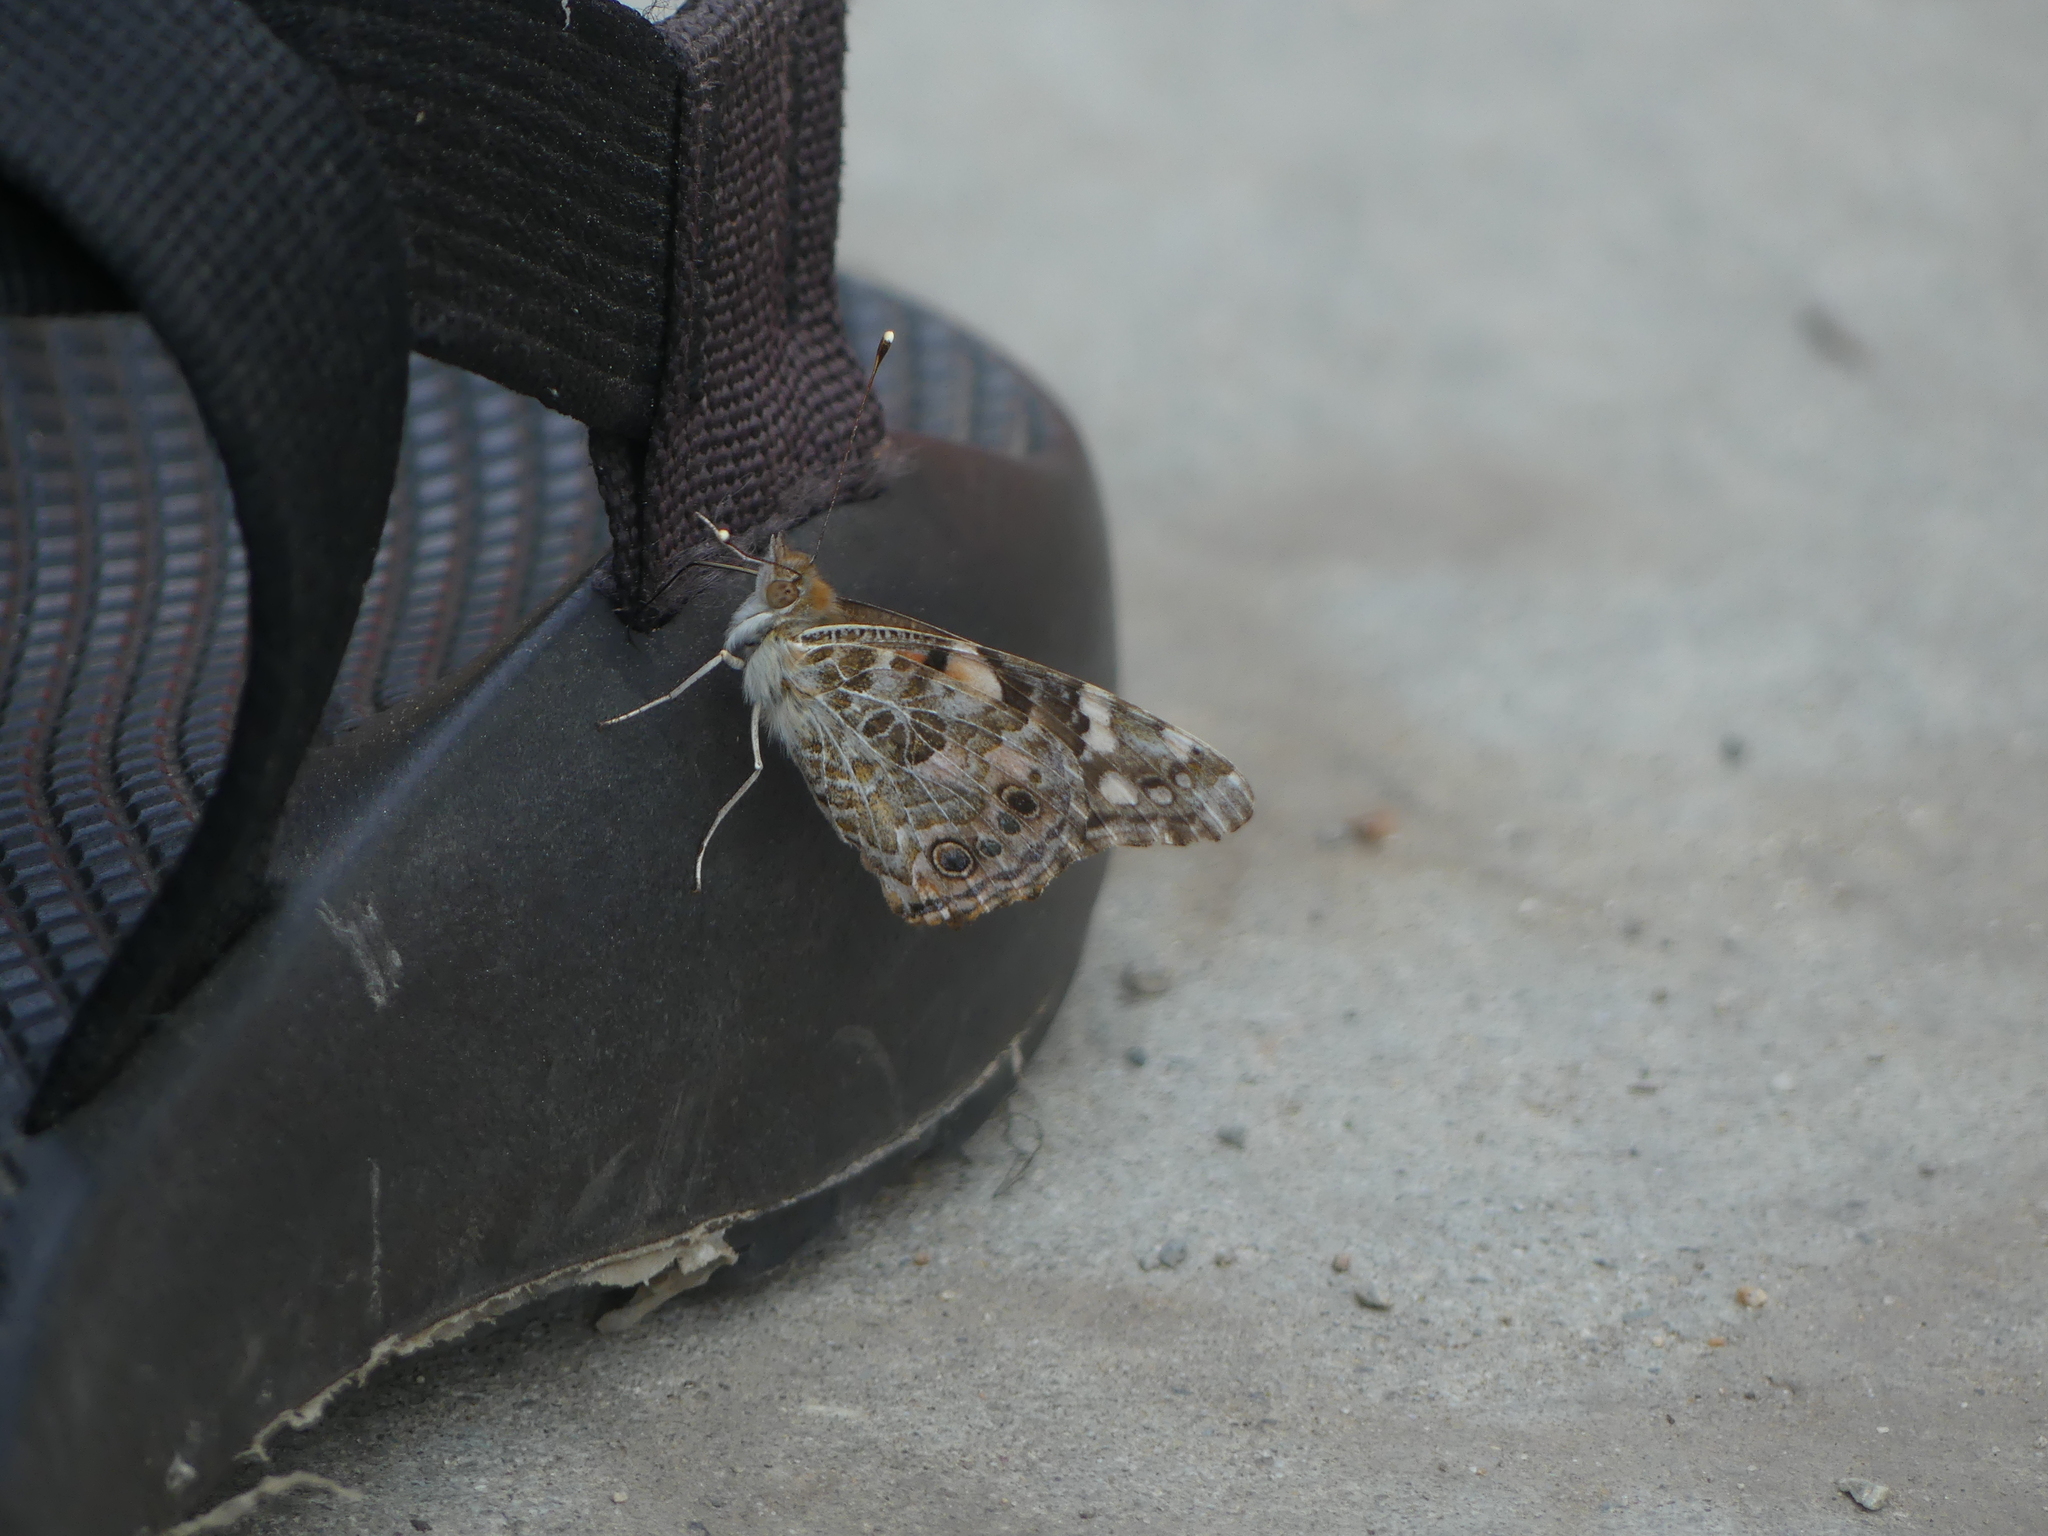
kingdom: Animalia
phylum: Arthropoda
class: Insecta
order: Lepidoptera
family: Nymphalidae
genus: Vanessa
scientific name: Vanessa cardui
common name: Painted lady
